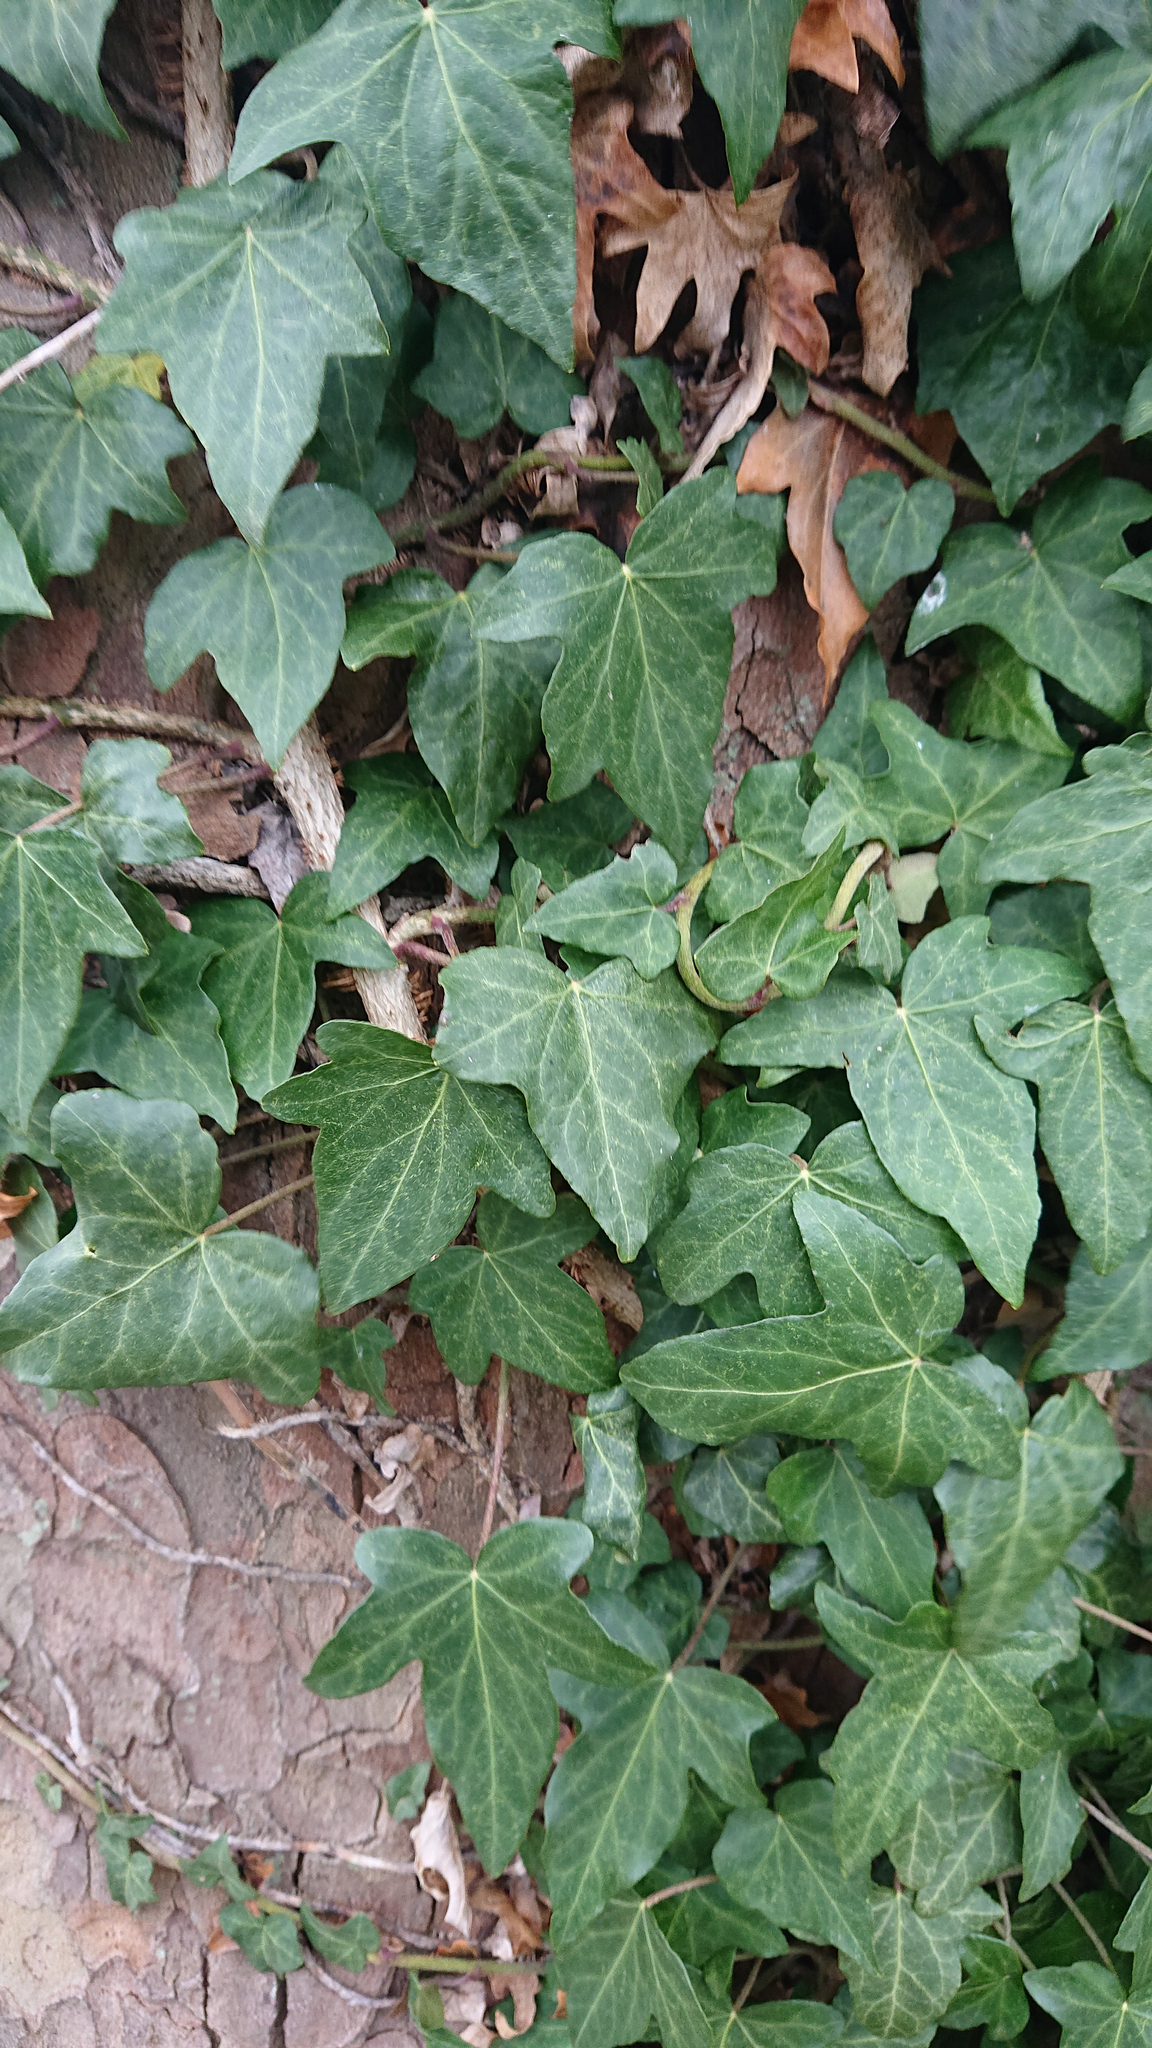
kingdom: Plantae
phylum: Tracheophyta
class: Magnoliopsida
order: Apiales
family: Araliaceae
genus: Hedera
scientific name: Hedera helix
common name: Ivy
